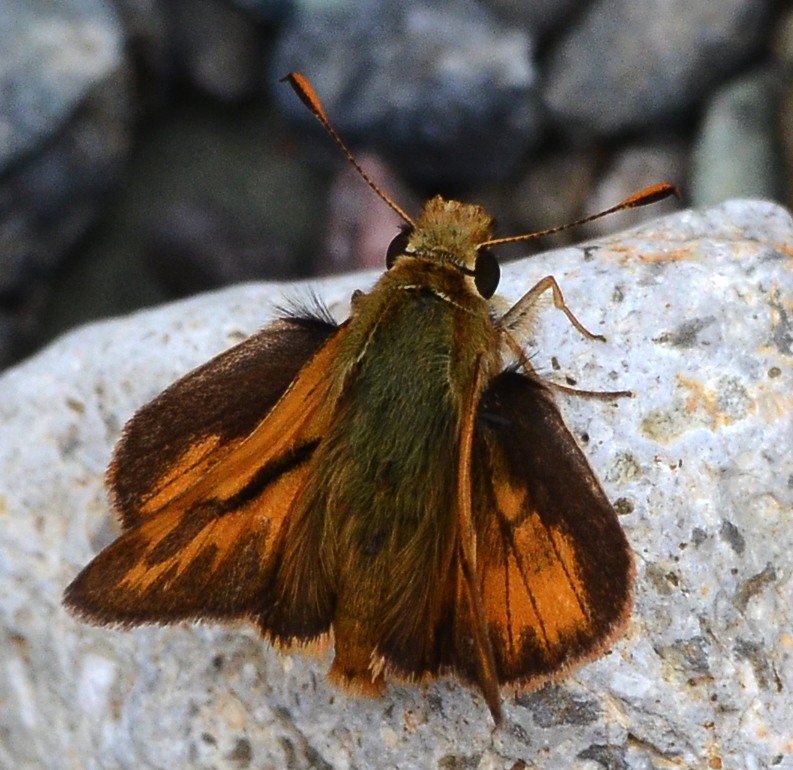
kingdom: Animalia
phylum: Arthropoda
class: Insecta
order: Lepidoptera
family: Hesperiidae
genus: Ochlodes
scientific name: Ochlodes sylvanoides
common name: Woodland skipper
